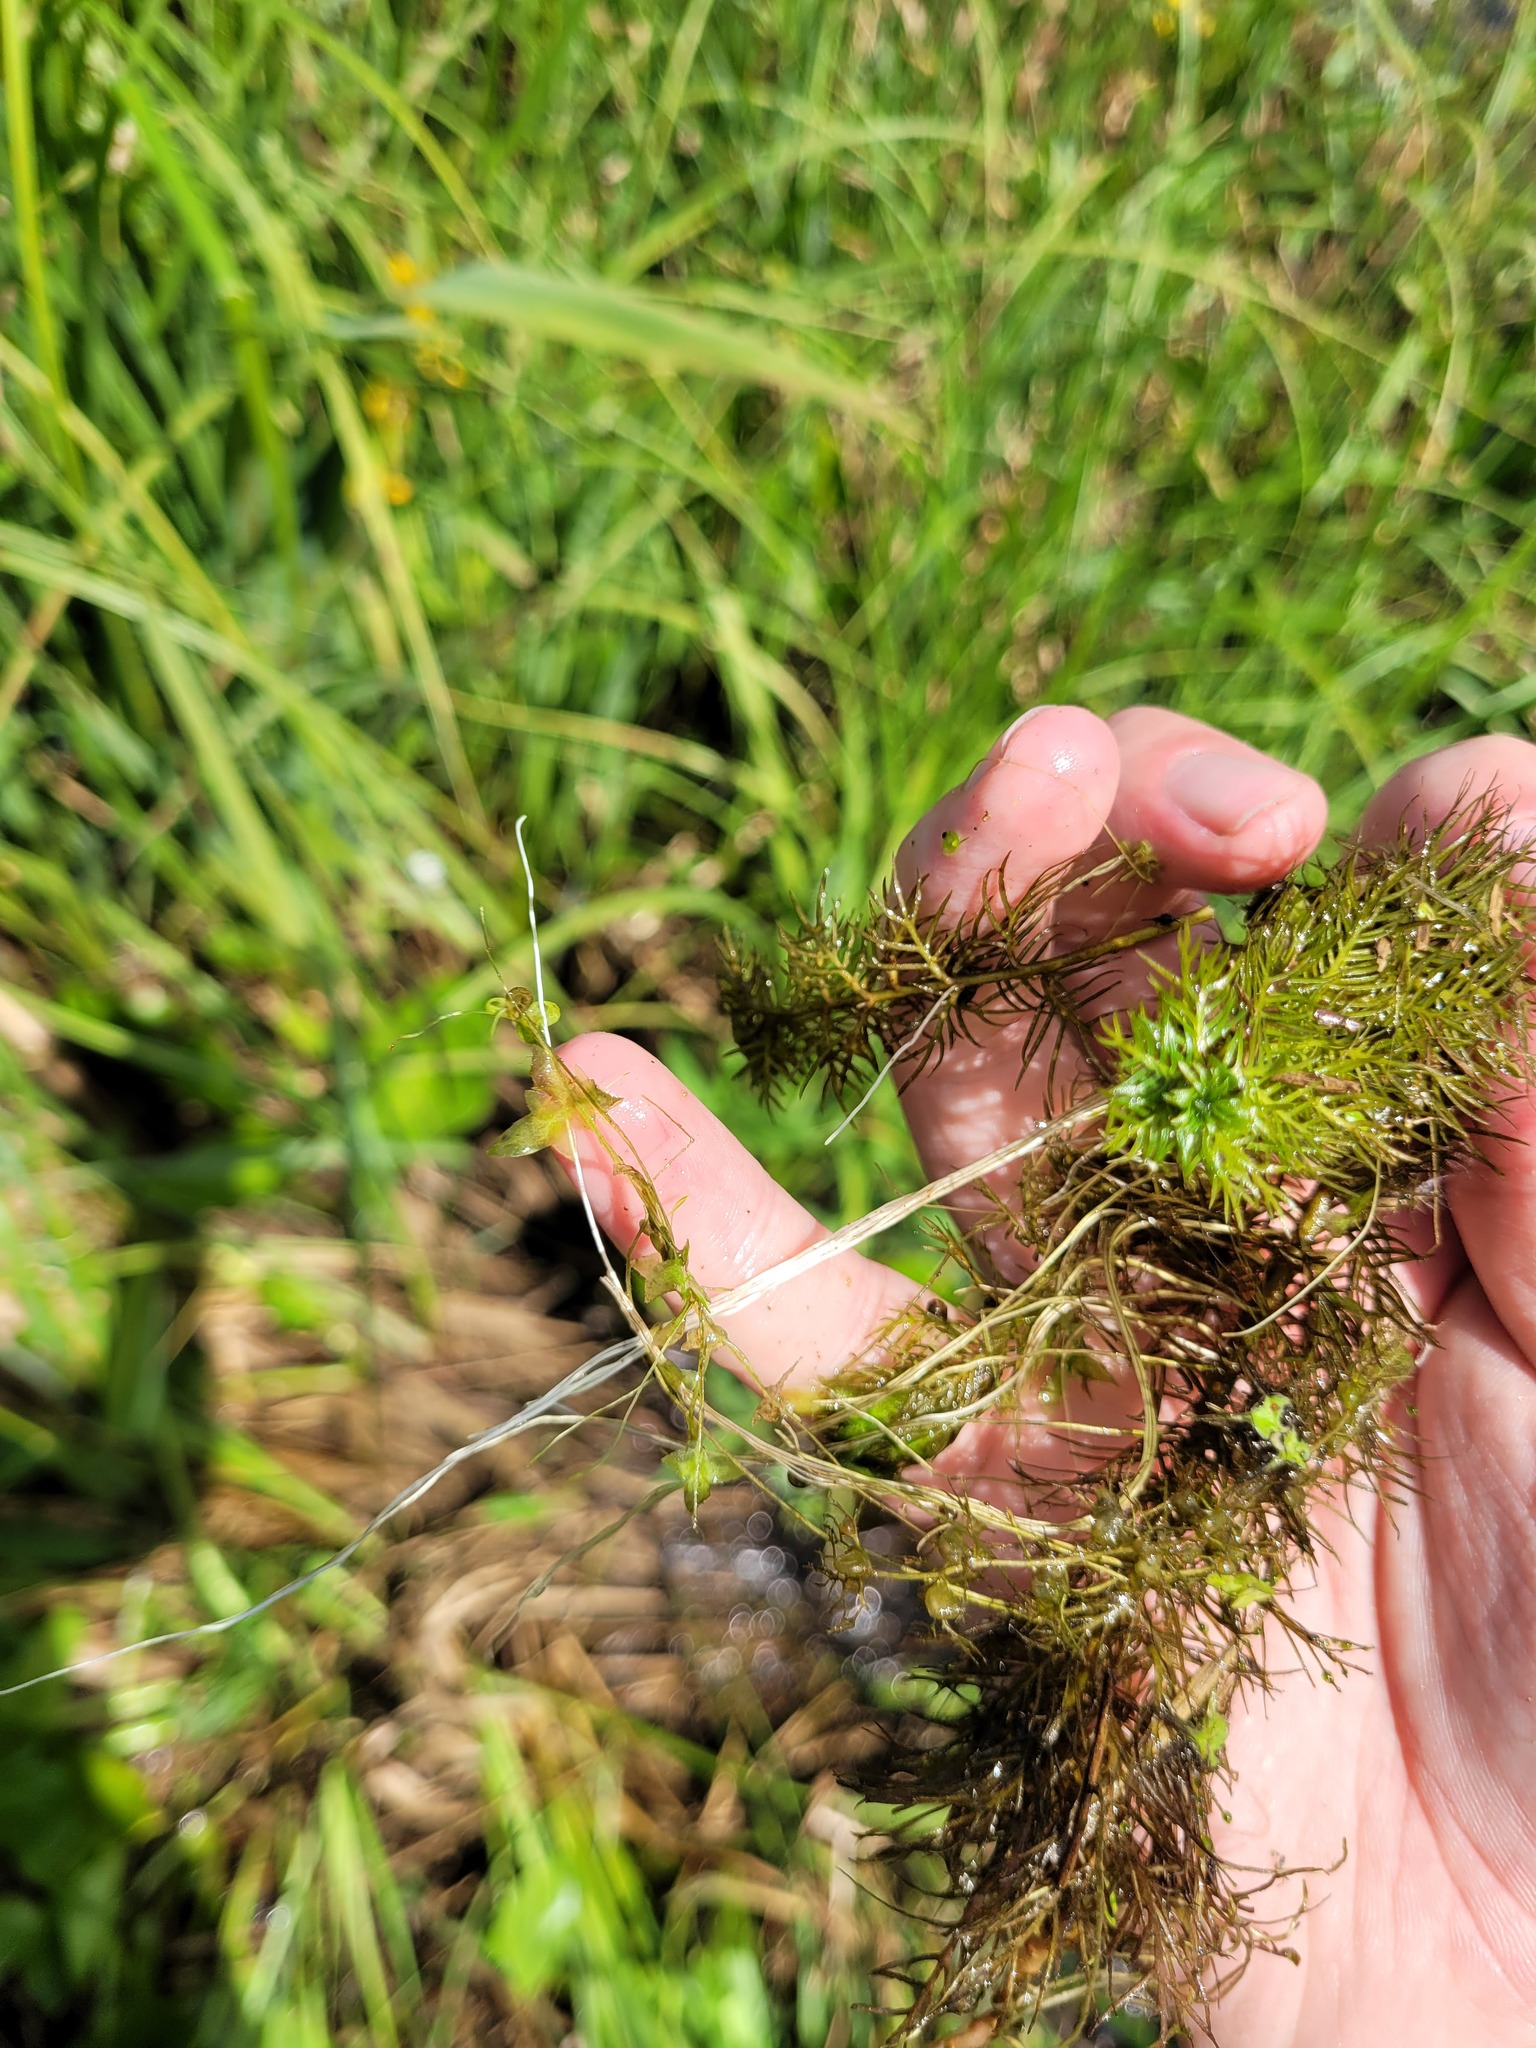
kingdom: Plantae
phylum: Tracheophyta
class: Liliopsida
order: Alismatales
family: Araceae
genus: Lemna
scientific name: Lemna trisulca
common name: Ivy-leaved duckweed
